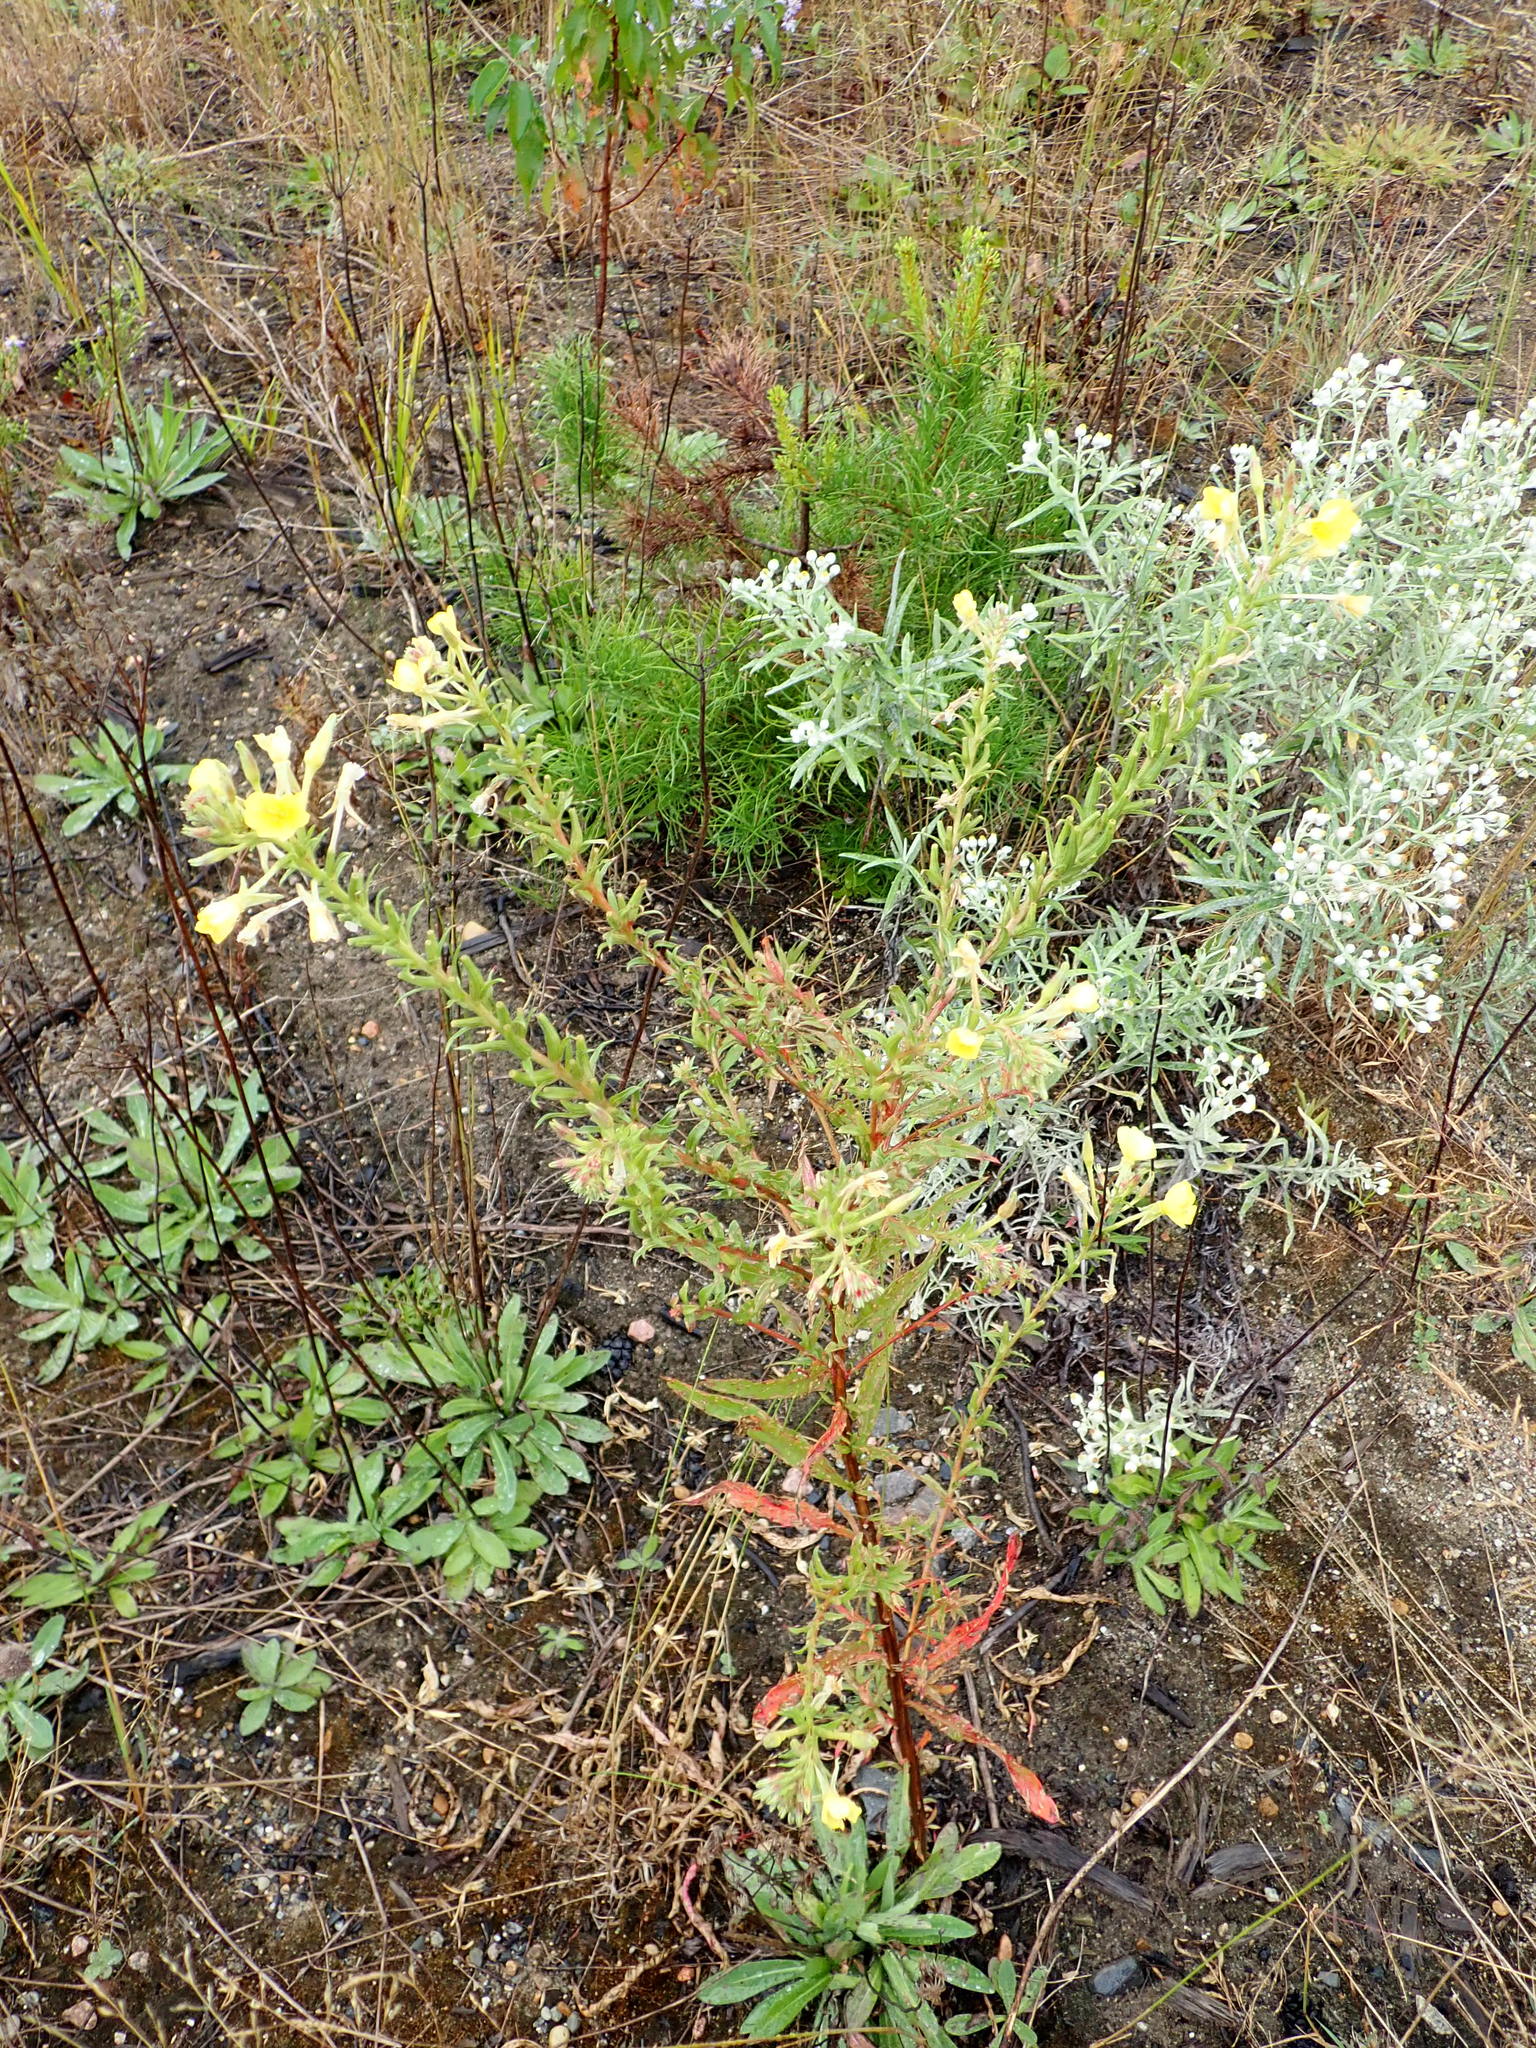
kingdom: Plantae
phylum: Tracheophyta
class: Magnoliopsida
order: Myrtales
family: Onagraceae
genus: Oenothera
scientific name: Oenothera biennis
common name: Common evening-primrose
